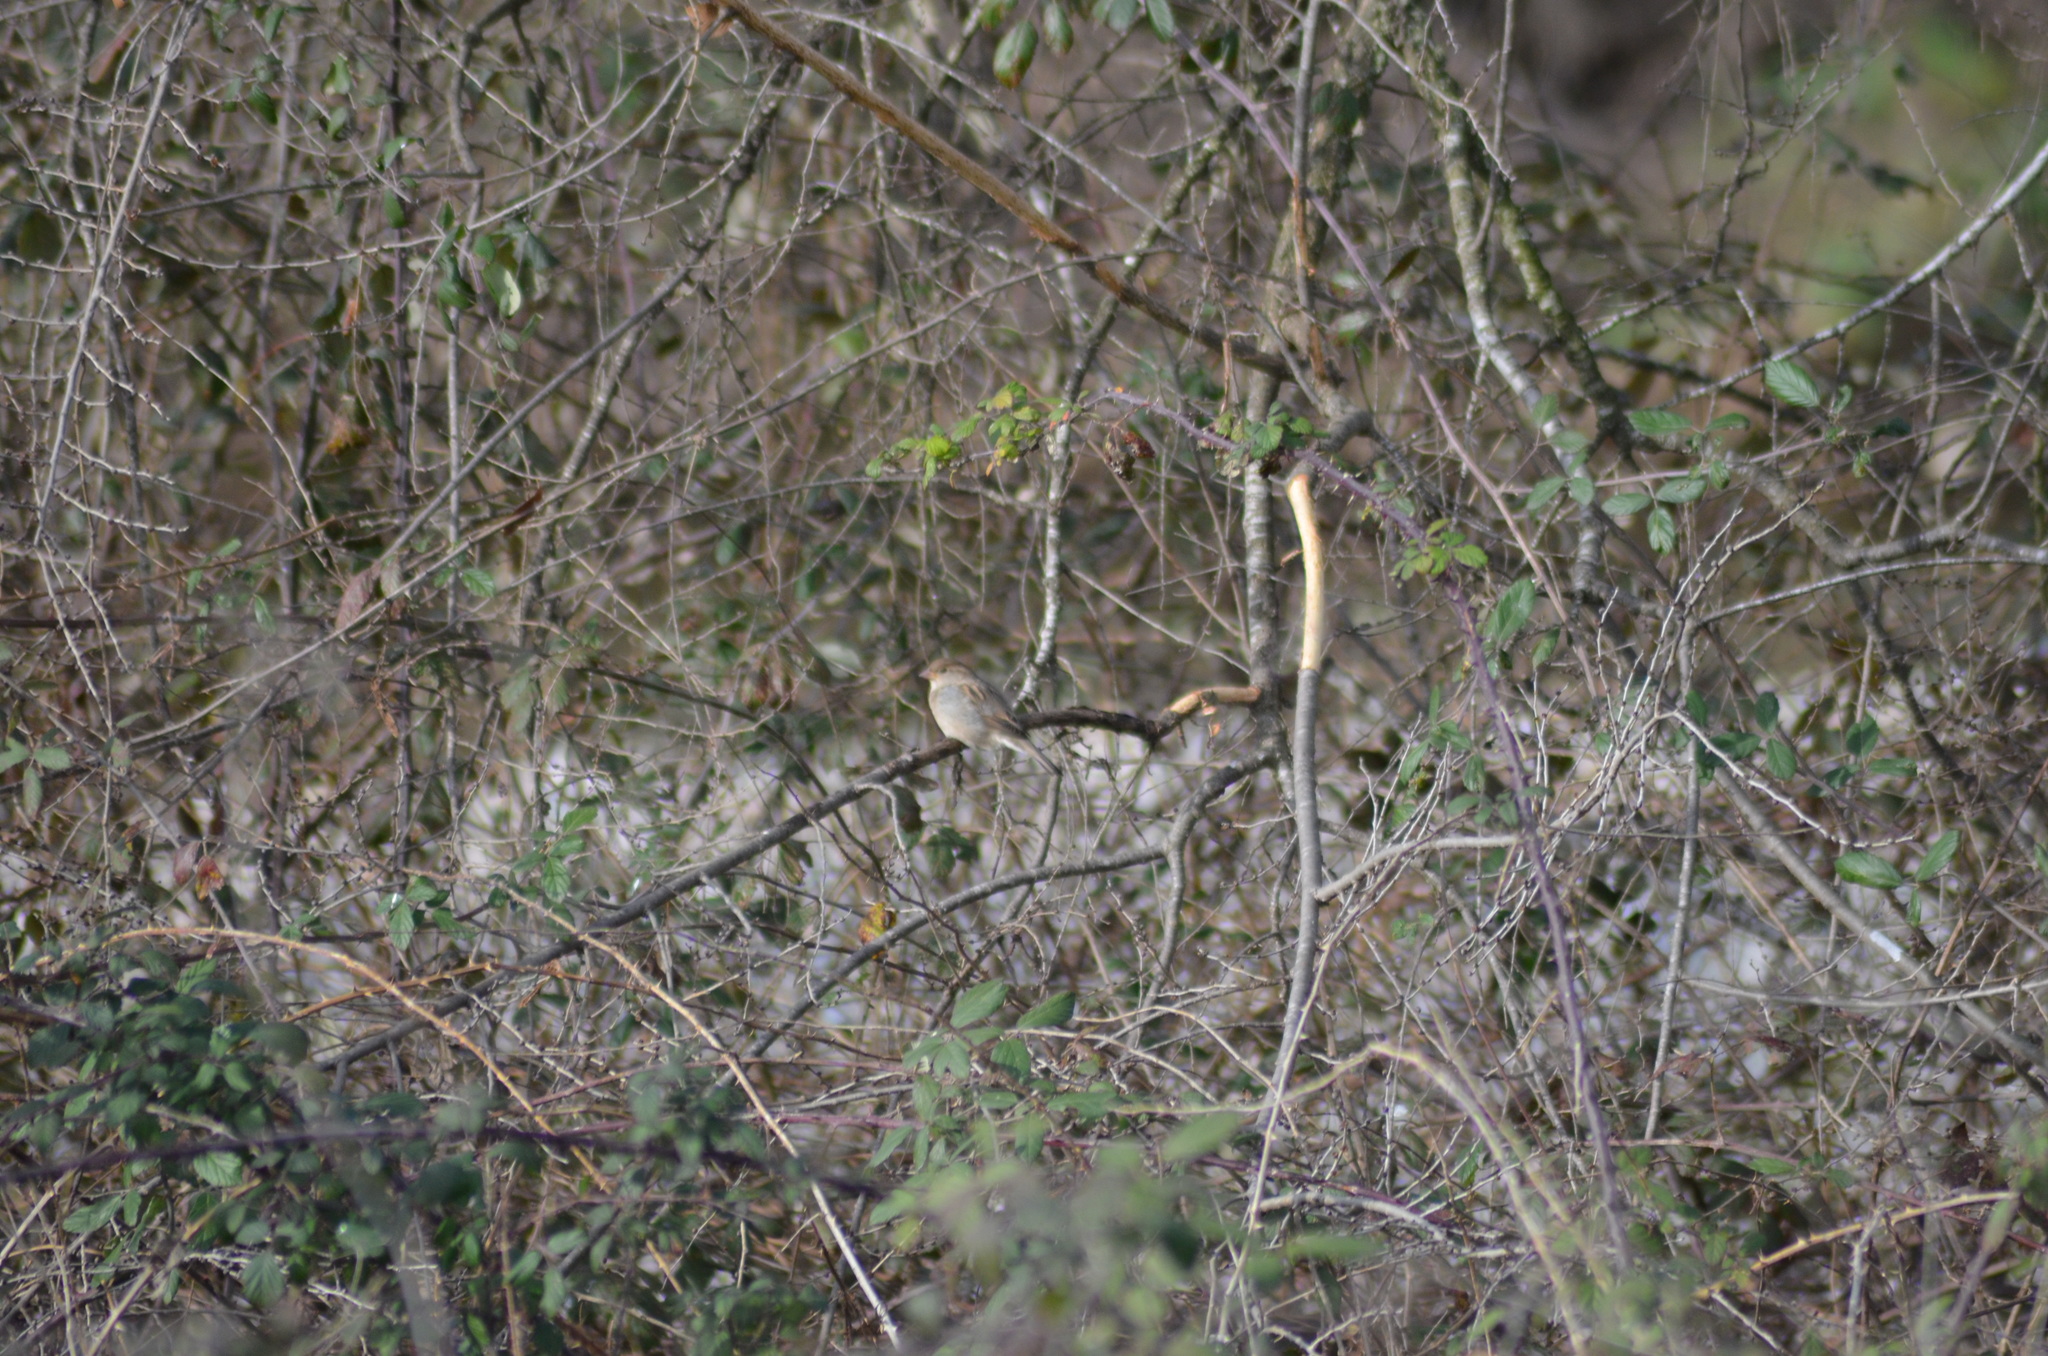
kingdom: Animalia
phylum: Chordata
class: Aves
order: Passeriformes
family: Passeridae
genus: Passer
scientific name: Passer domesticus
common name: House sparrow
